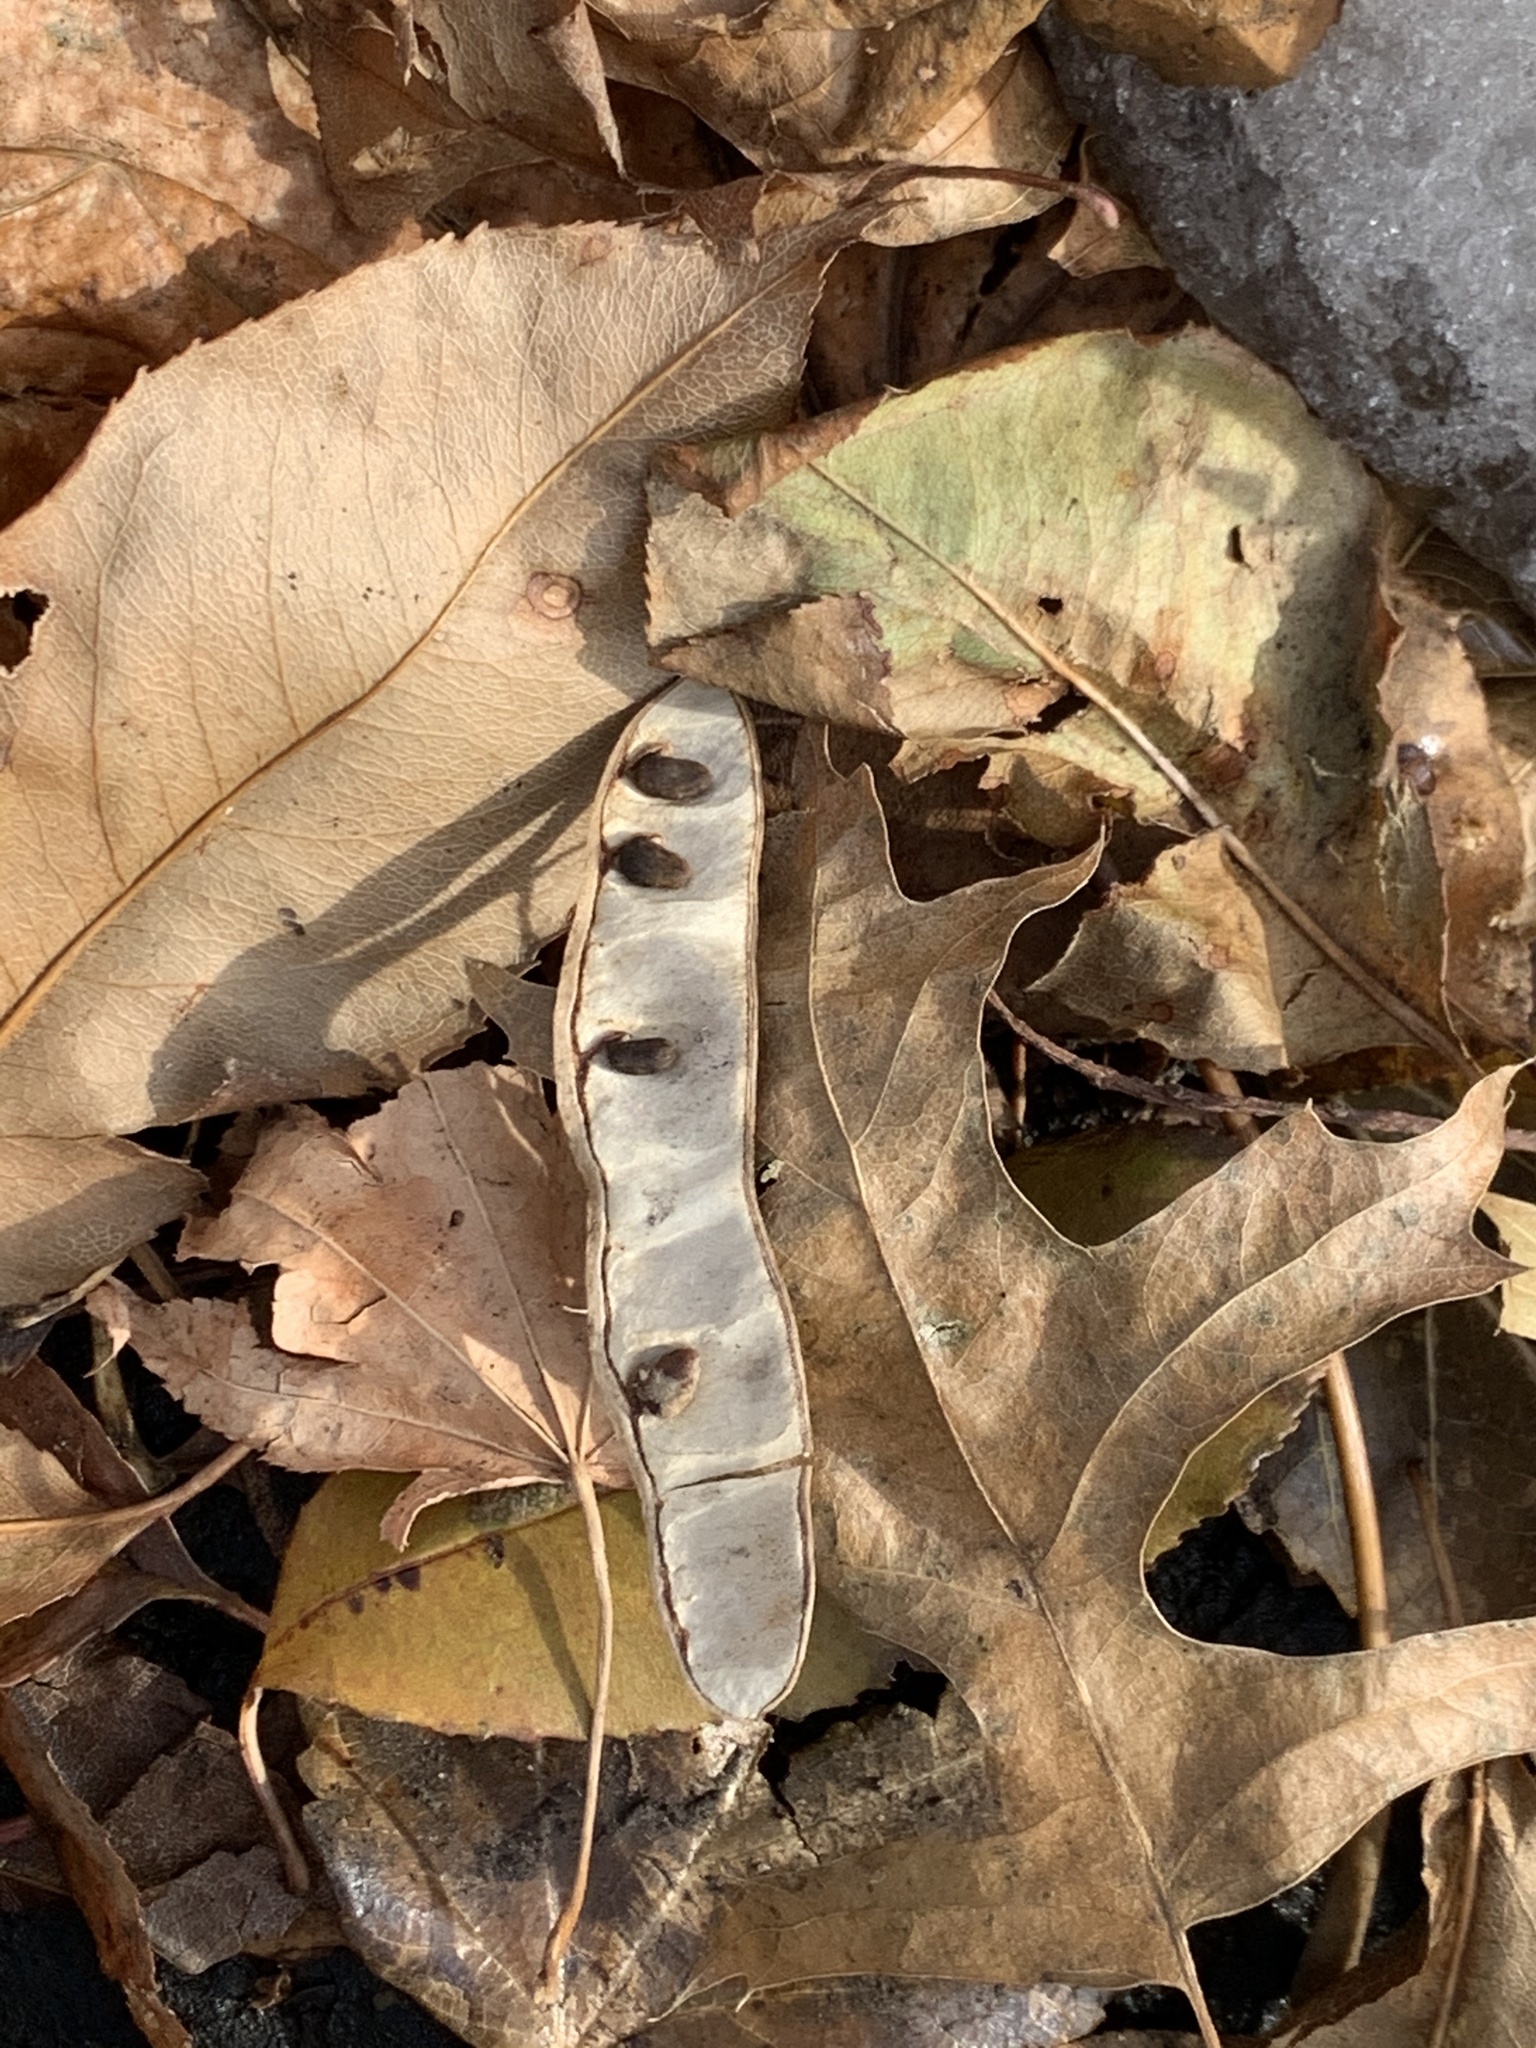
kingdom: Plantae
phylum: Tracheophyta
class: Magnoliopsida
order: Fabales
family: Fabaceae
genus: Robinia
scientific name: Robinia pseudoacacia
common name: Black locust
